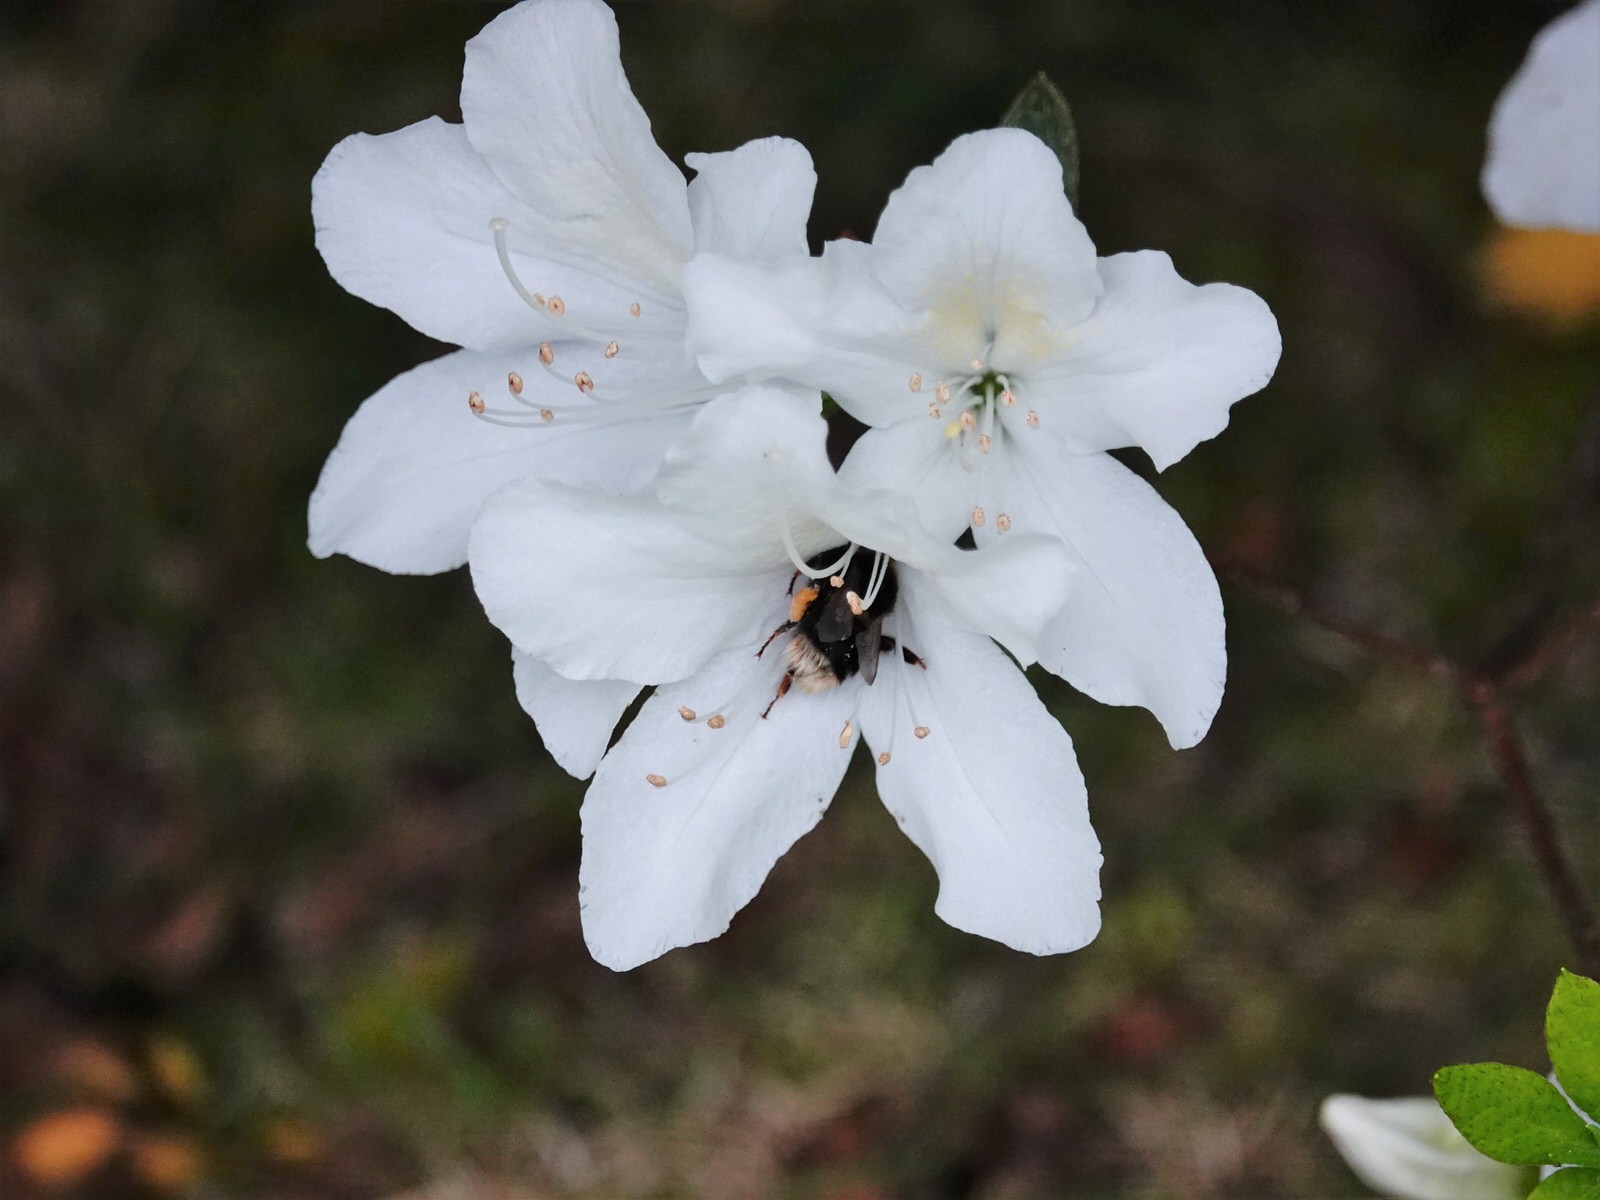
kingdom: Animalia
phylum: Arthropoda
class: Insecta
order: Hymenoptera
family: Apidae
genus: Bombus
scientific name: Bombus terrestris
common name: Buff-tailed bumblebee
